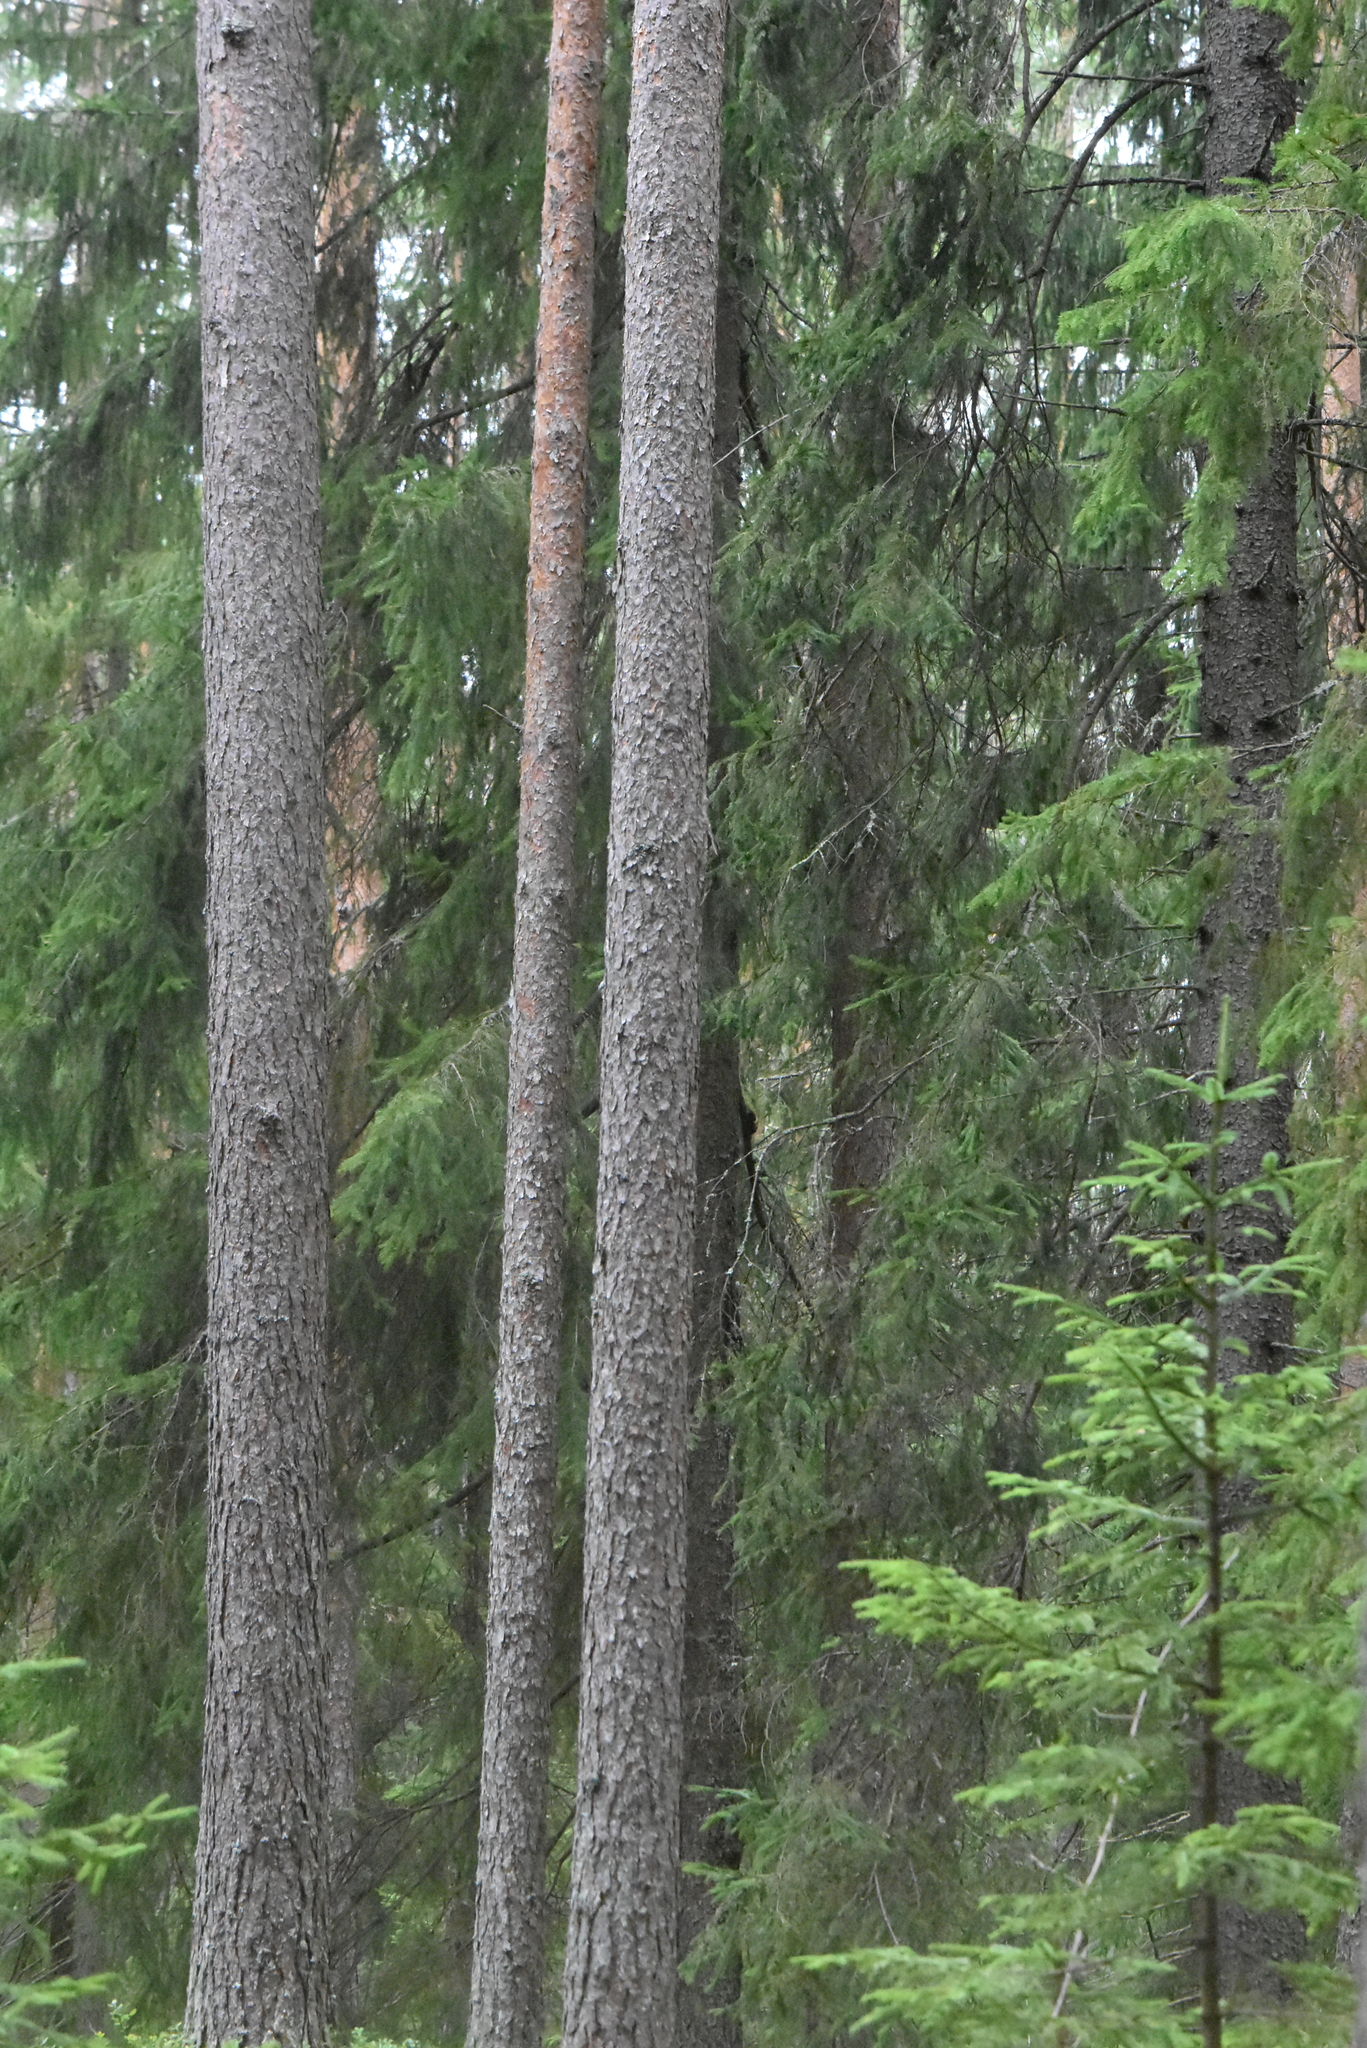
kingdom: Plantae
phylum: Tracheophyta
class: Pinopsida
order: Pinales
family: Pinaceae
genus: Pinus
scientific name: Pinus sylvestris
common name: Scots pine
